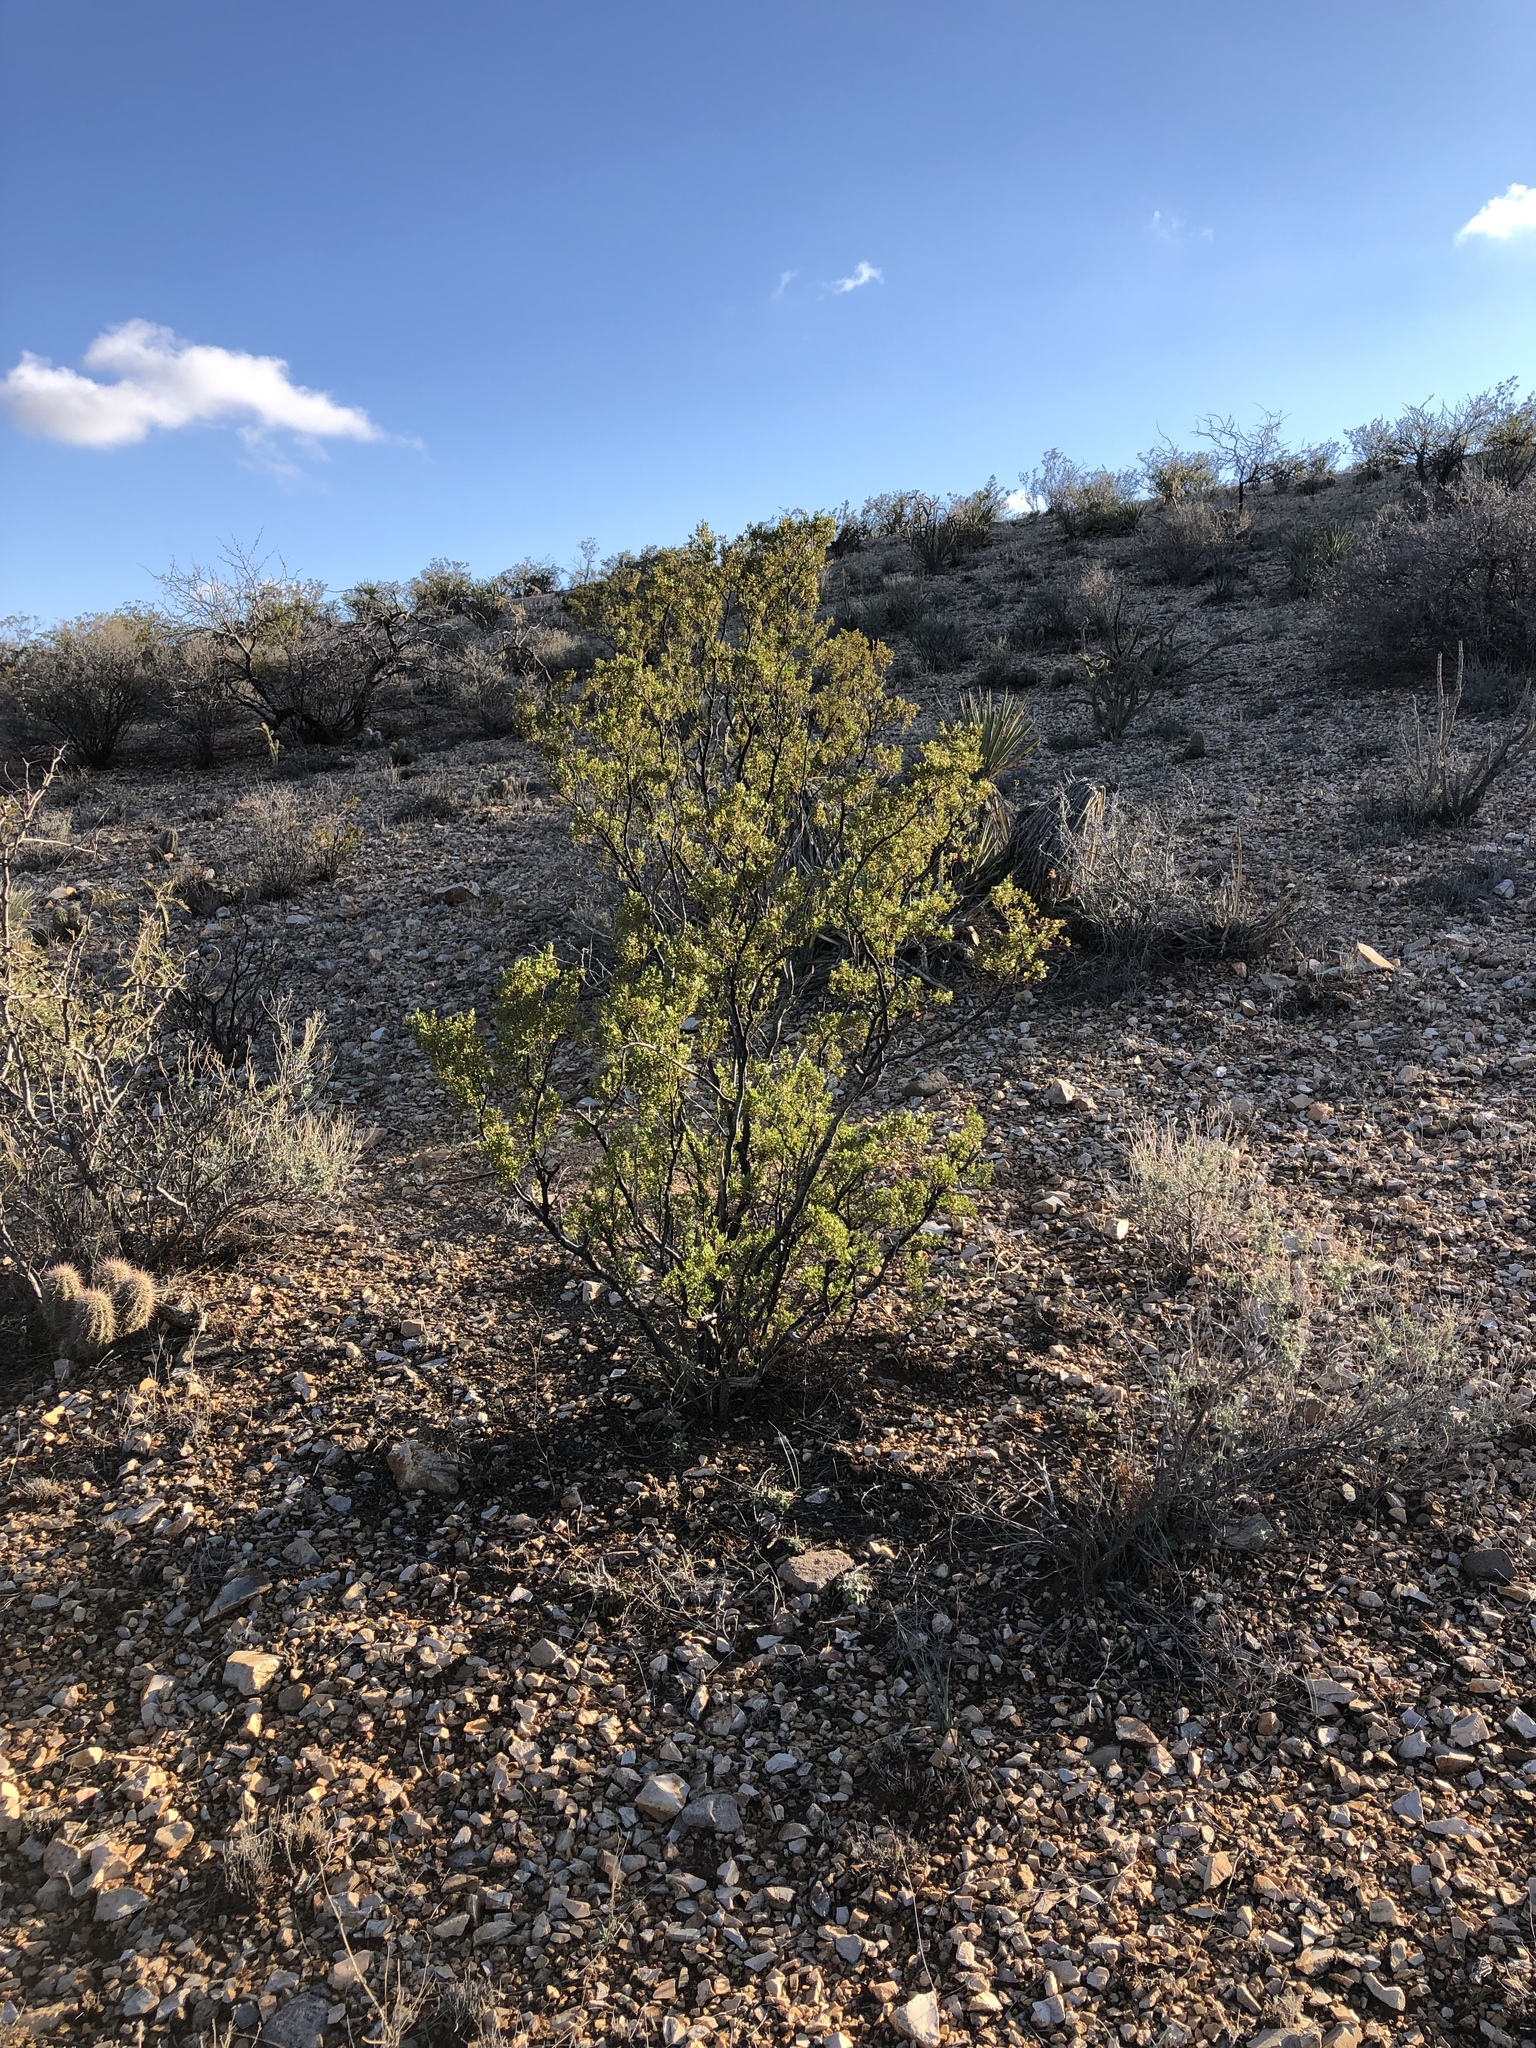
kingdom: Plantae
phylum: Tracheophyta
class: Magnoliopsida
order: Zygophyllales
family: Zygophyllaceae
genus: Larrea
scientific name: Larrea tridentata
